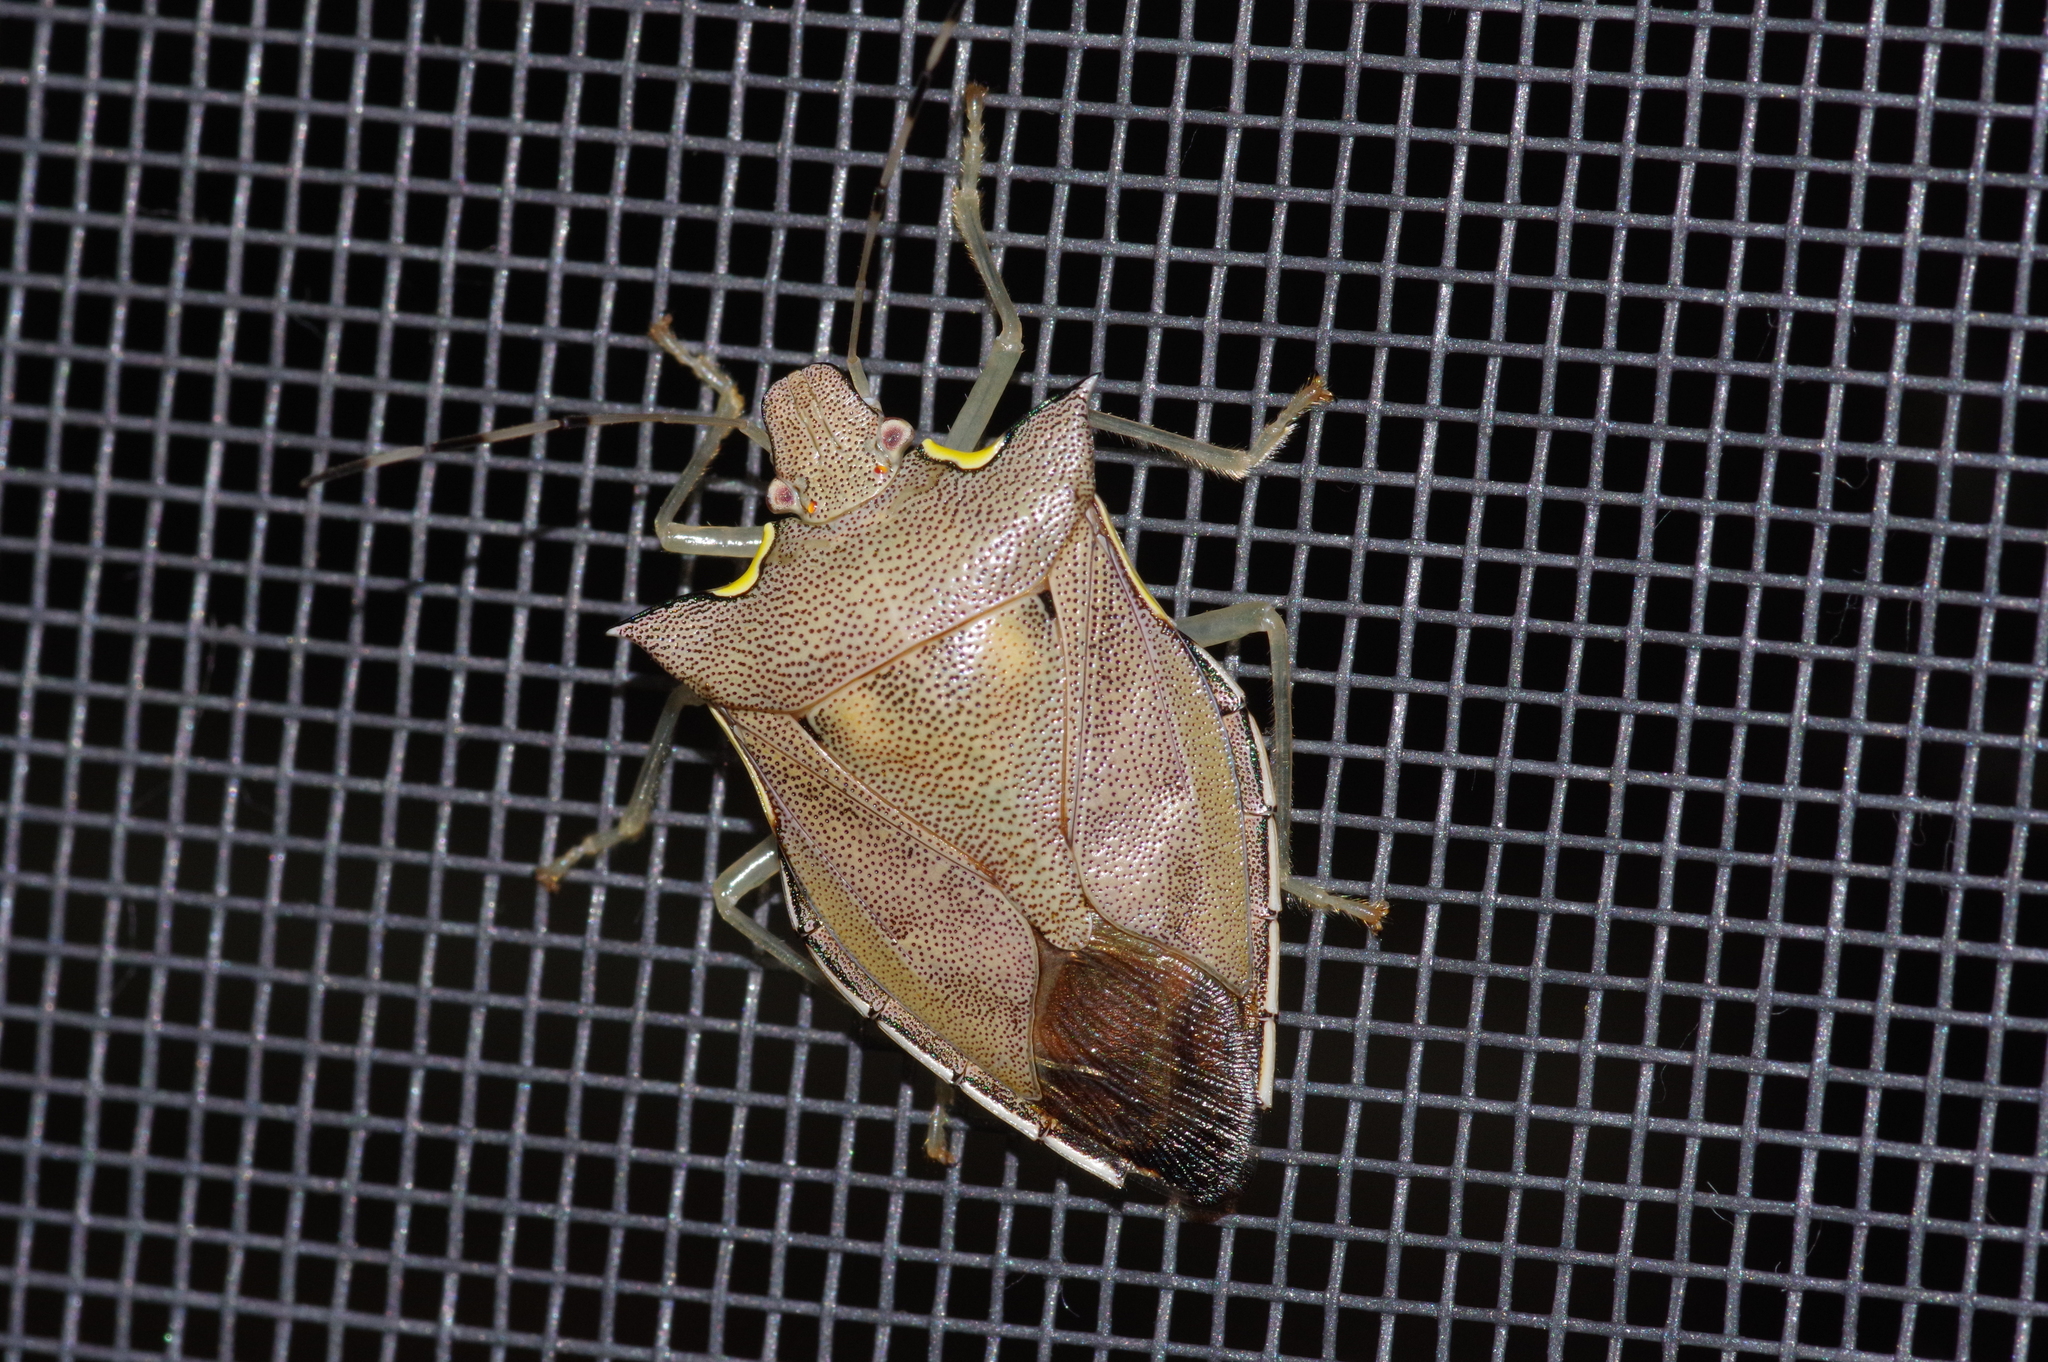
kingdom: Animalia
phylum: Arthropoda
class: Insecta
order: Hemiptera
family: Pentatomidae
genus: Amblycara
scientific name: Amblycara gladiatoria
